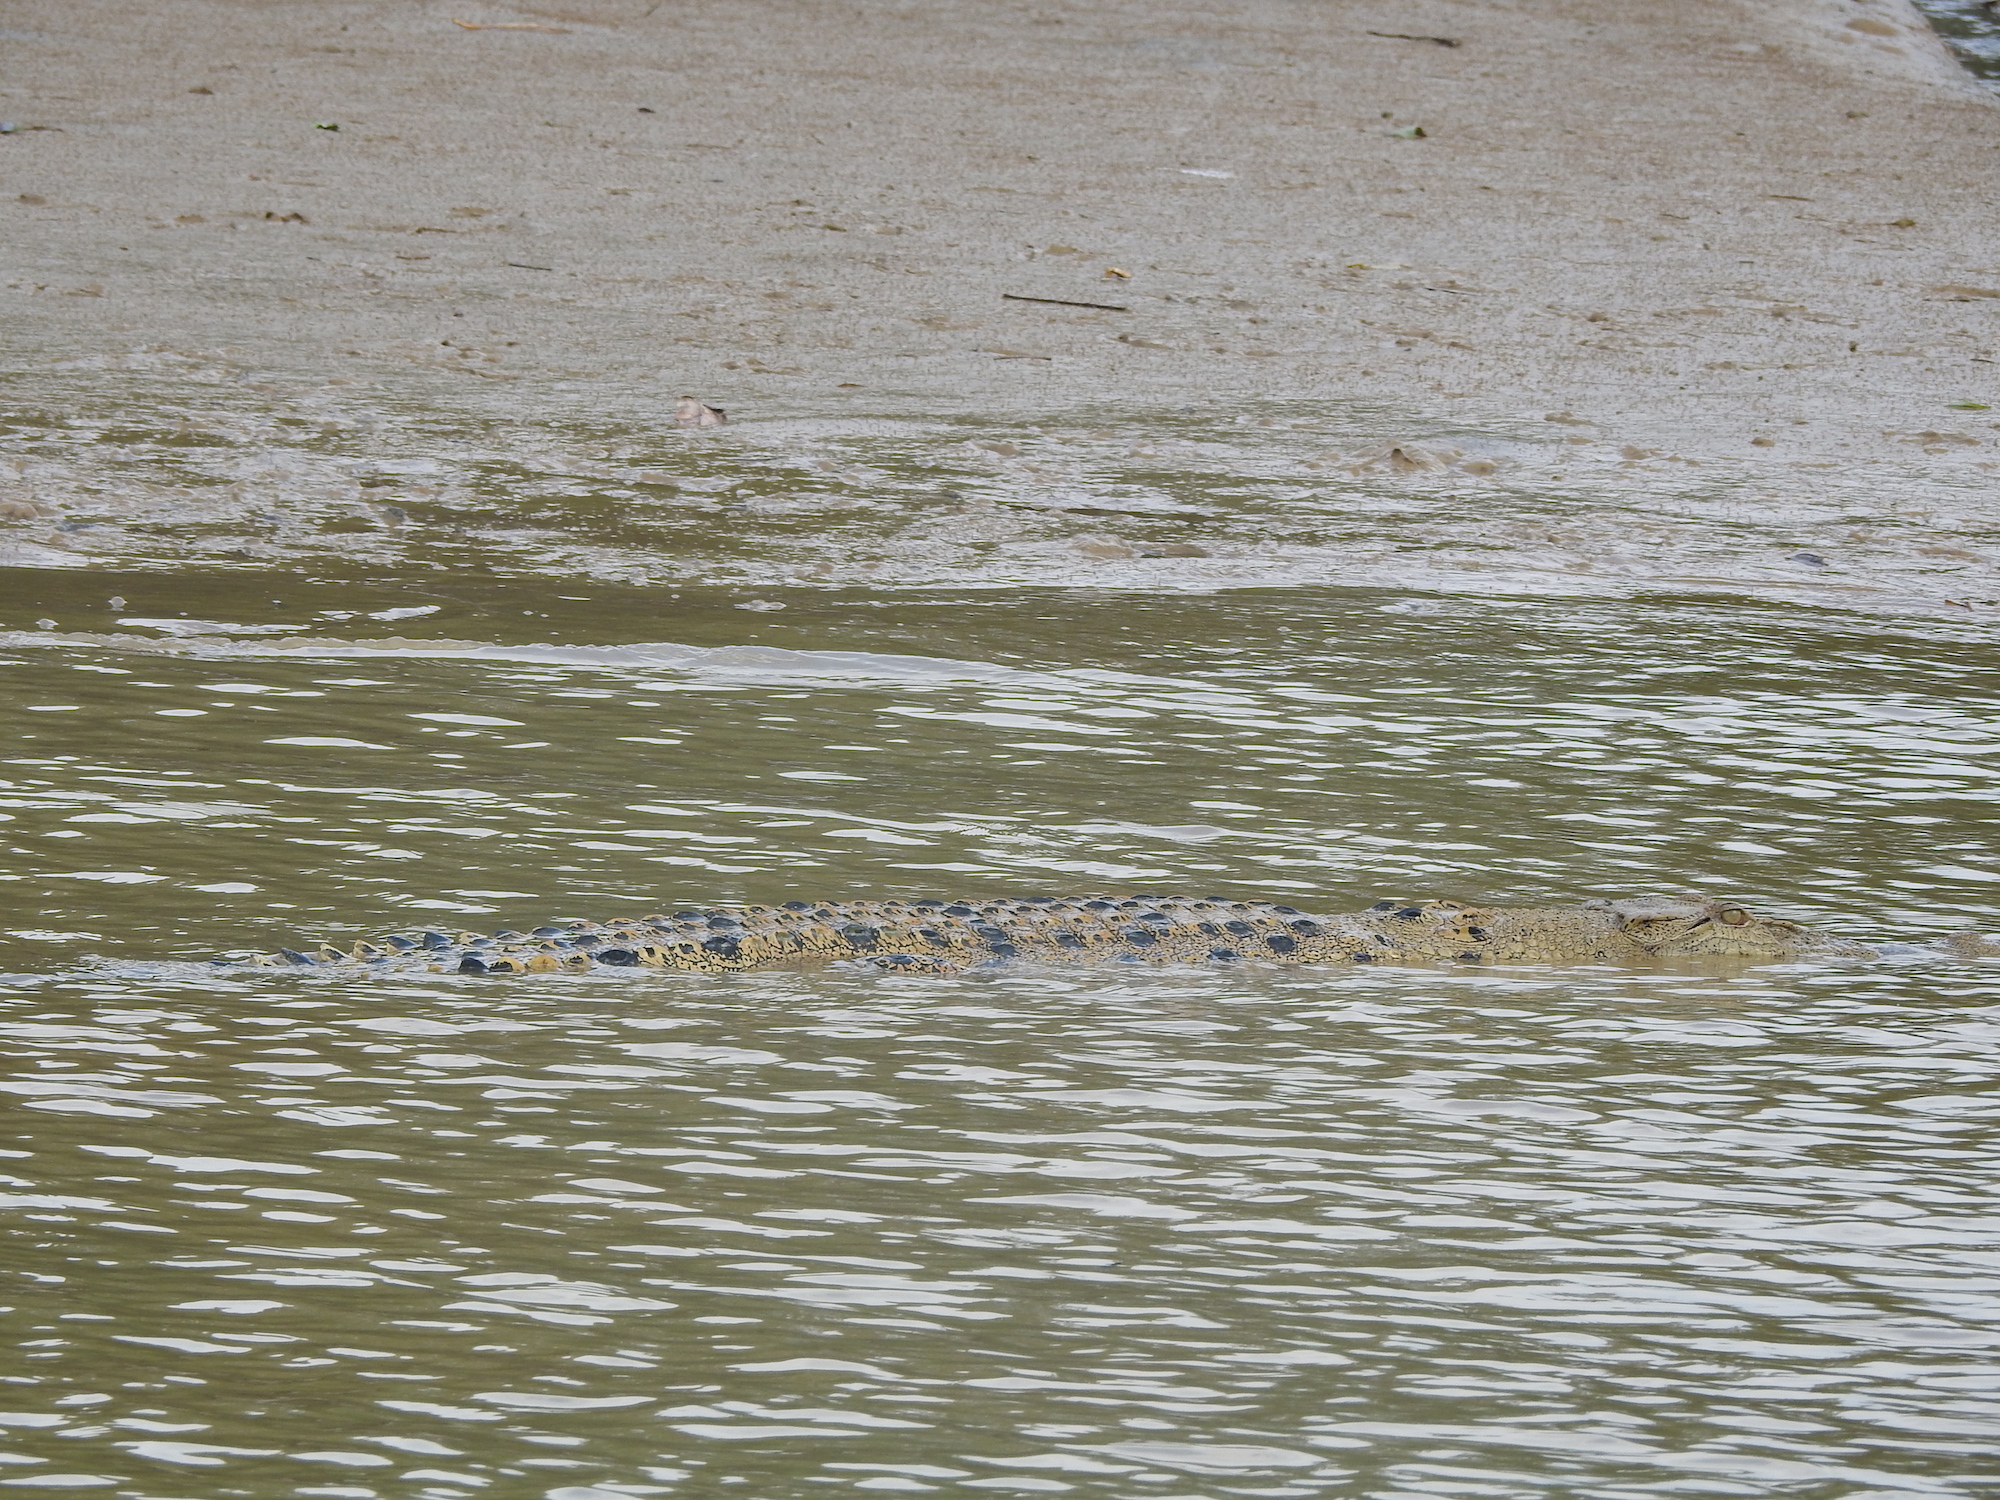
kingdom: Animalia
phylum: Chordata
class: Crocodylia
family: Crocodylidae
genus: Crocodylus
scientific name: Crocodylus porosus
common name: Saltwater crocodile
